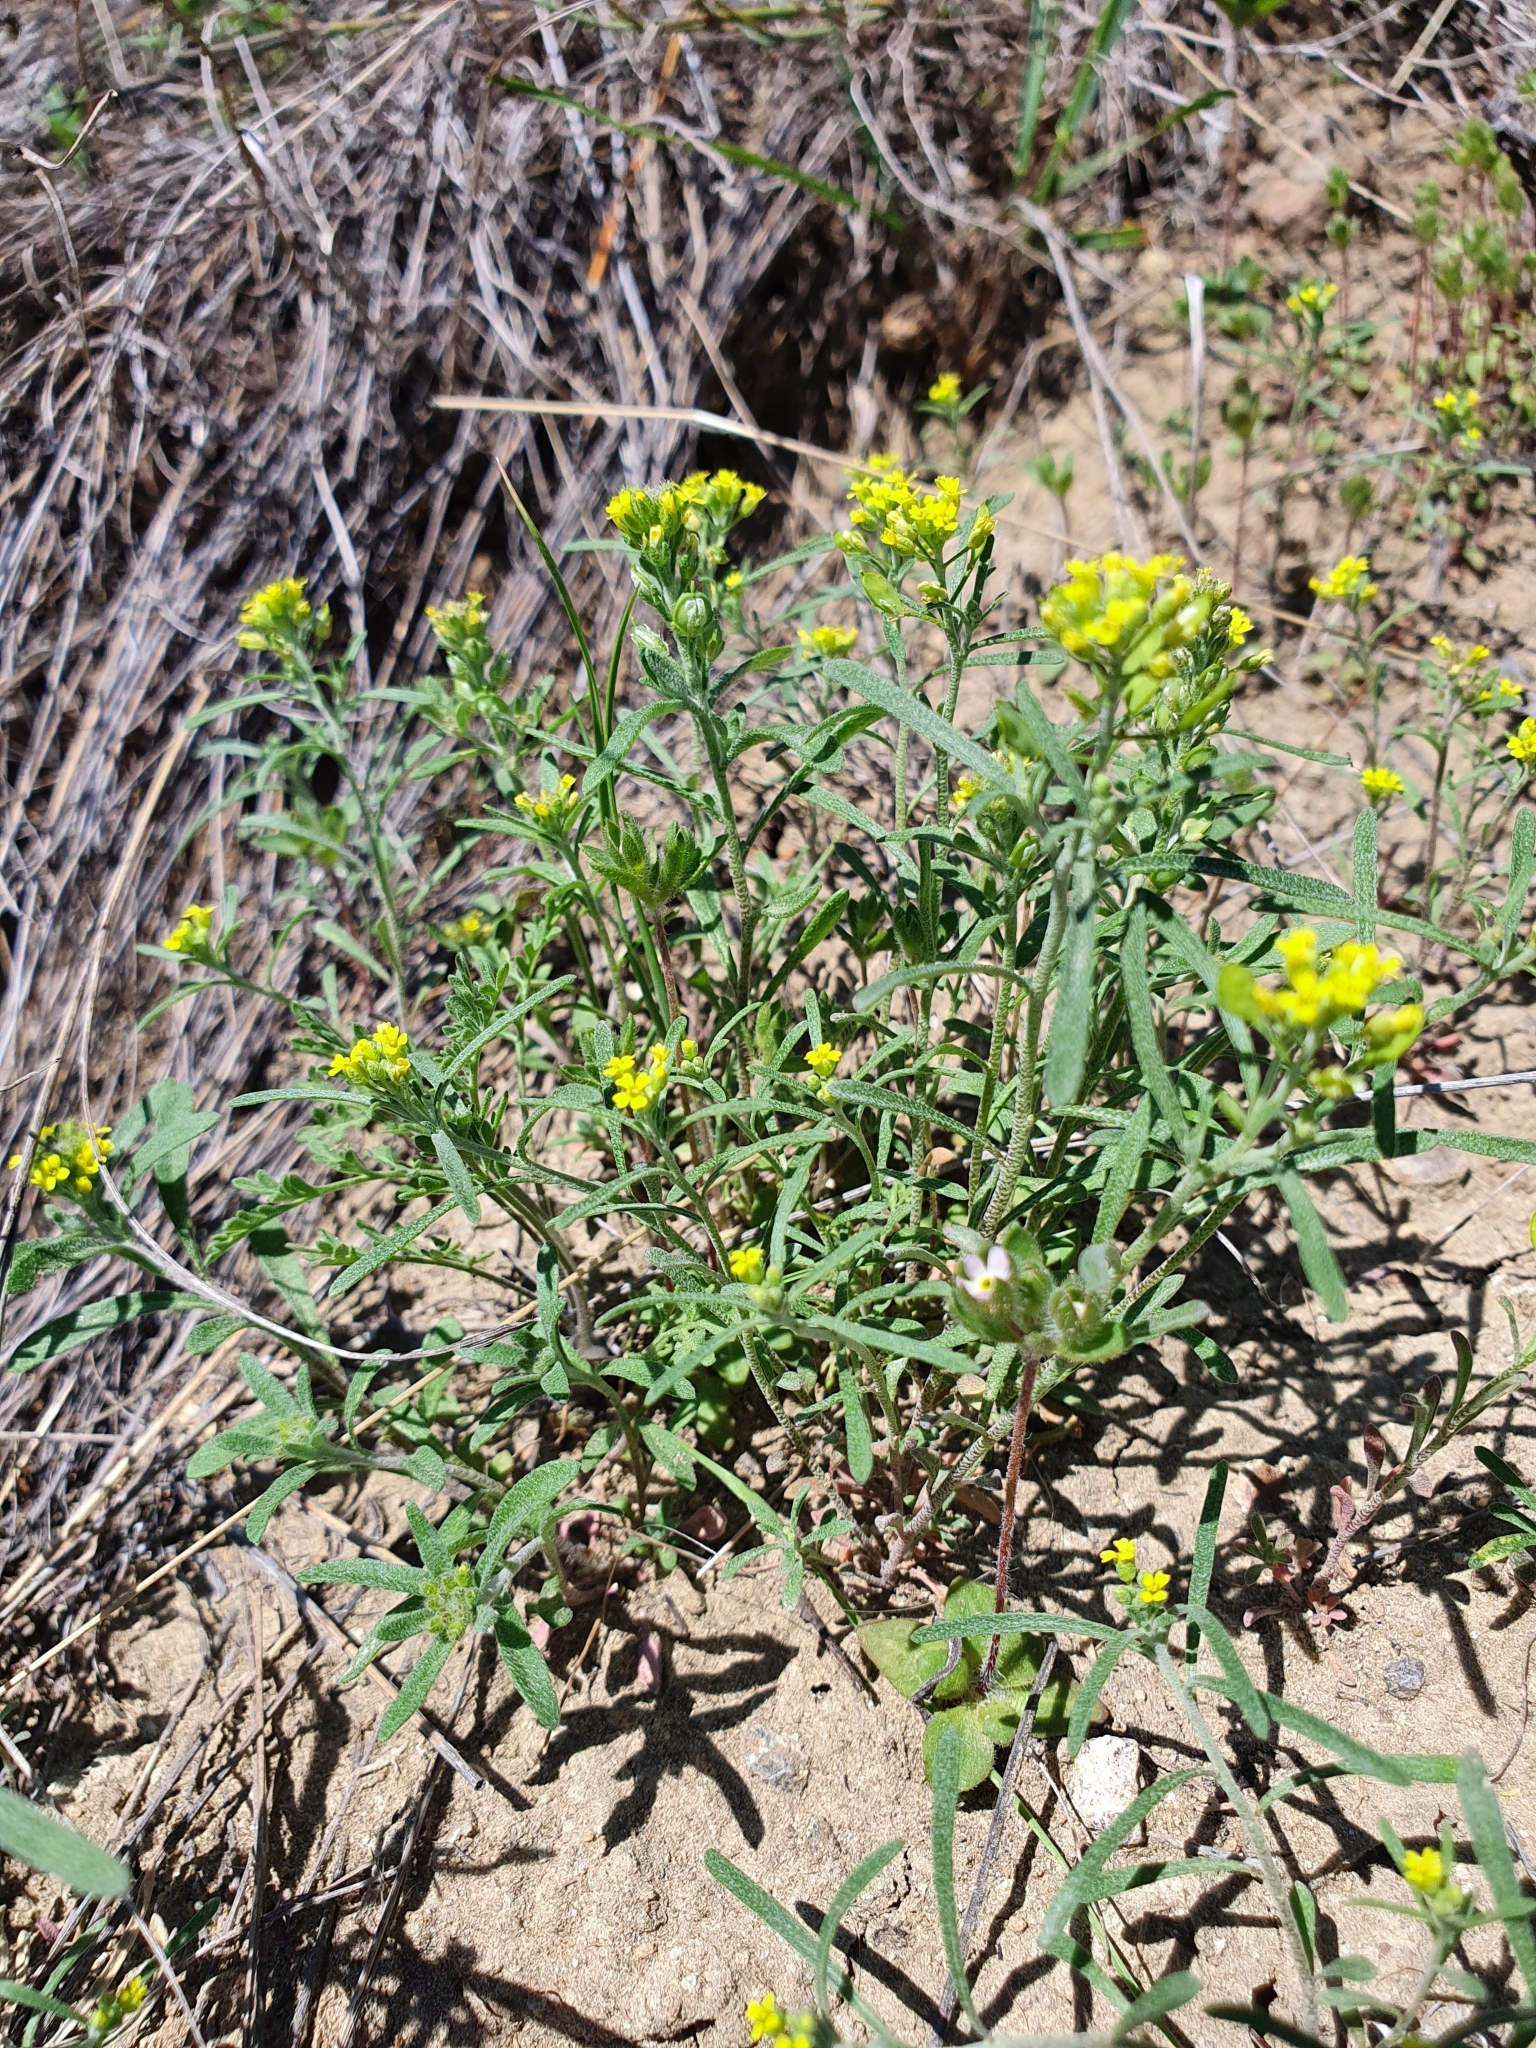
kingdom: Plantae
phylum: Tracheophyta
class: Magnoliopsida
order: Brassicales
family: Brassicaceae
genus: Alyssum
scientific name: Alyssum turkestanicum
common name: Desert alyssum
